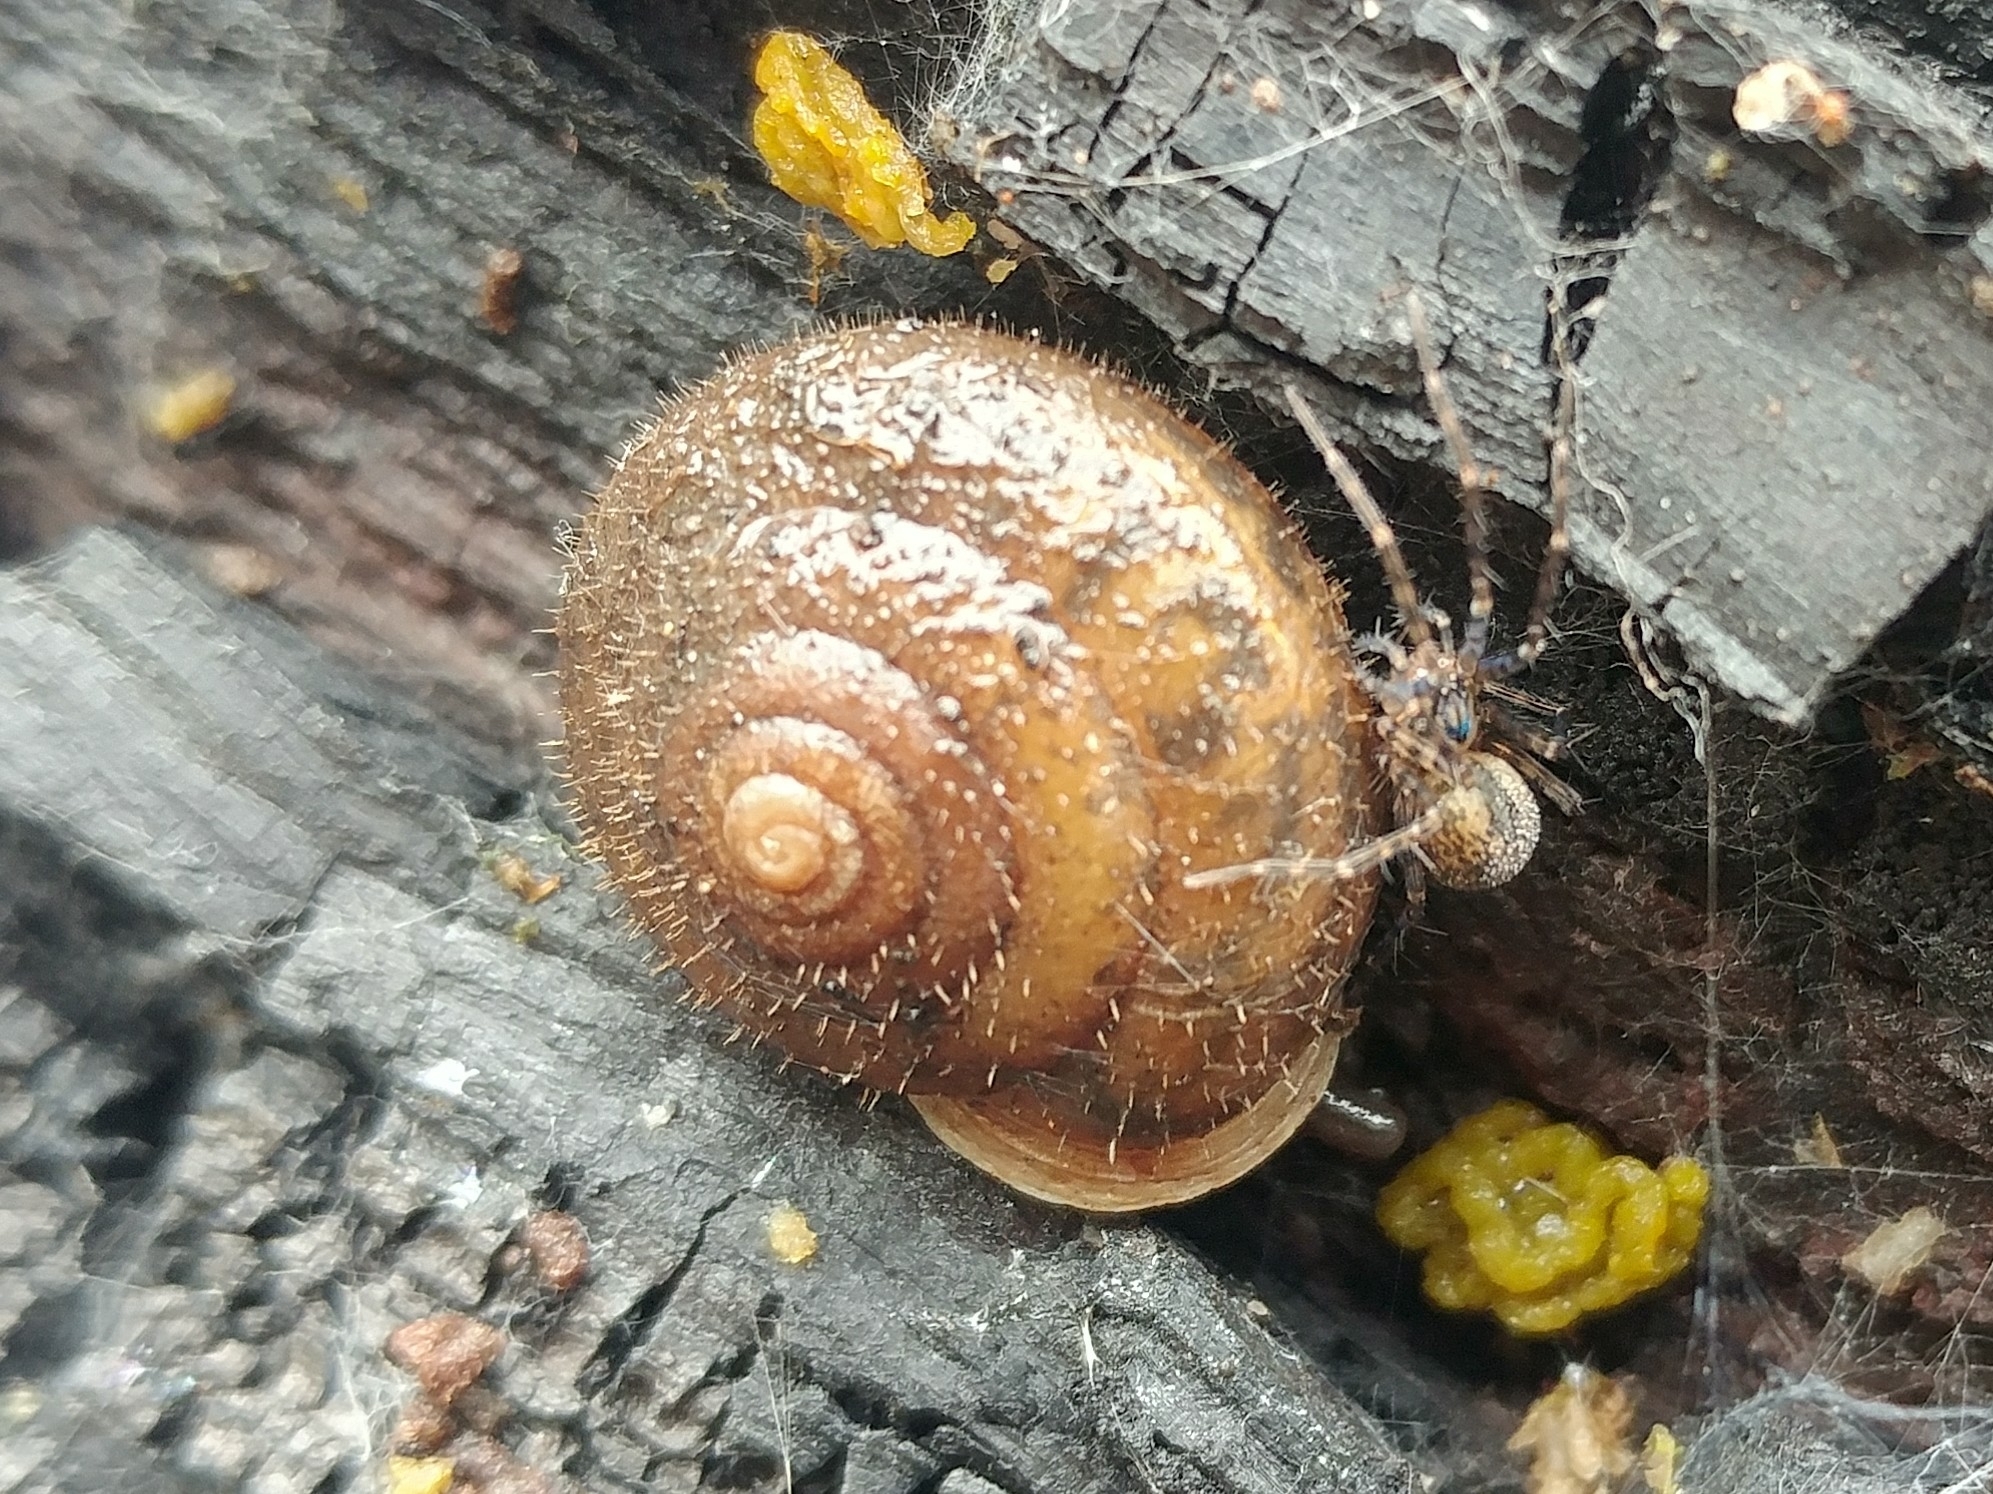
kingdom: Animalia
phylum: Mollusca
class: Gastropoda
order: Stylommatophora
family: Polygyridae
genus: Vespericola
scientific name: Vespericola columbianus
